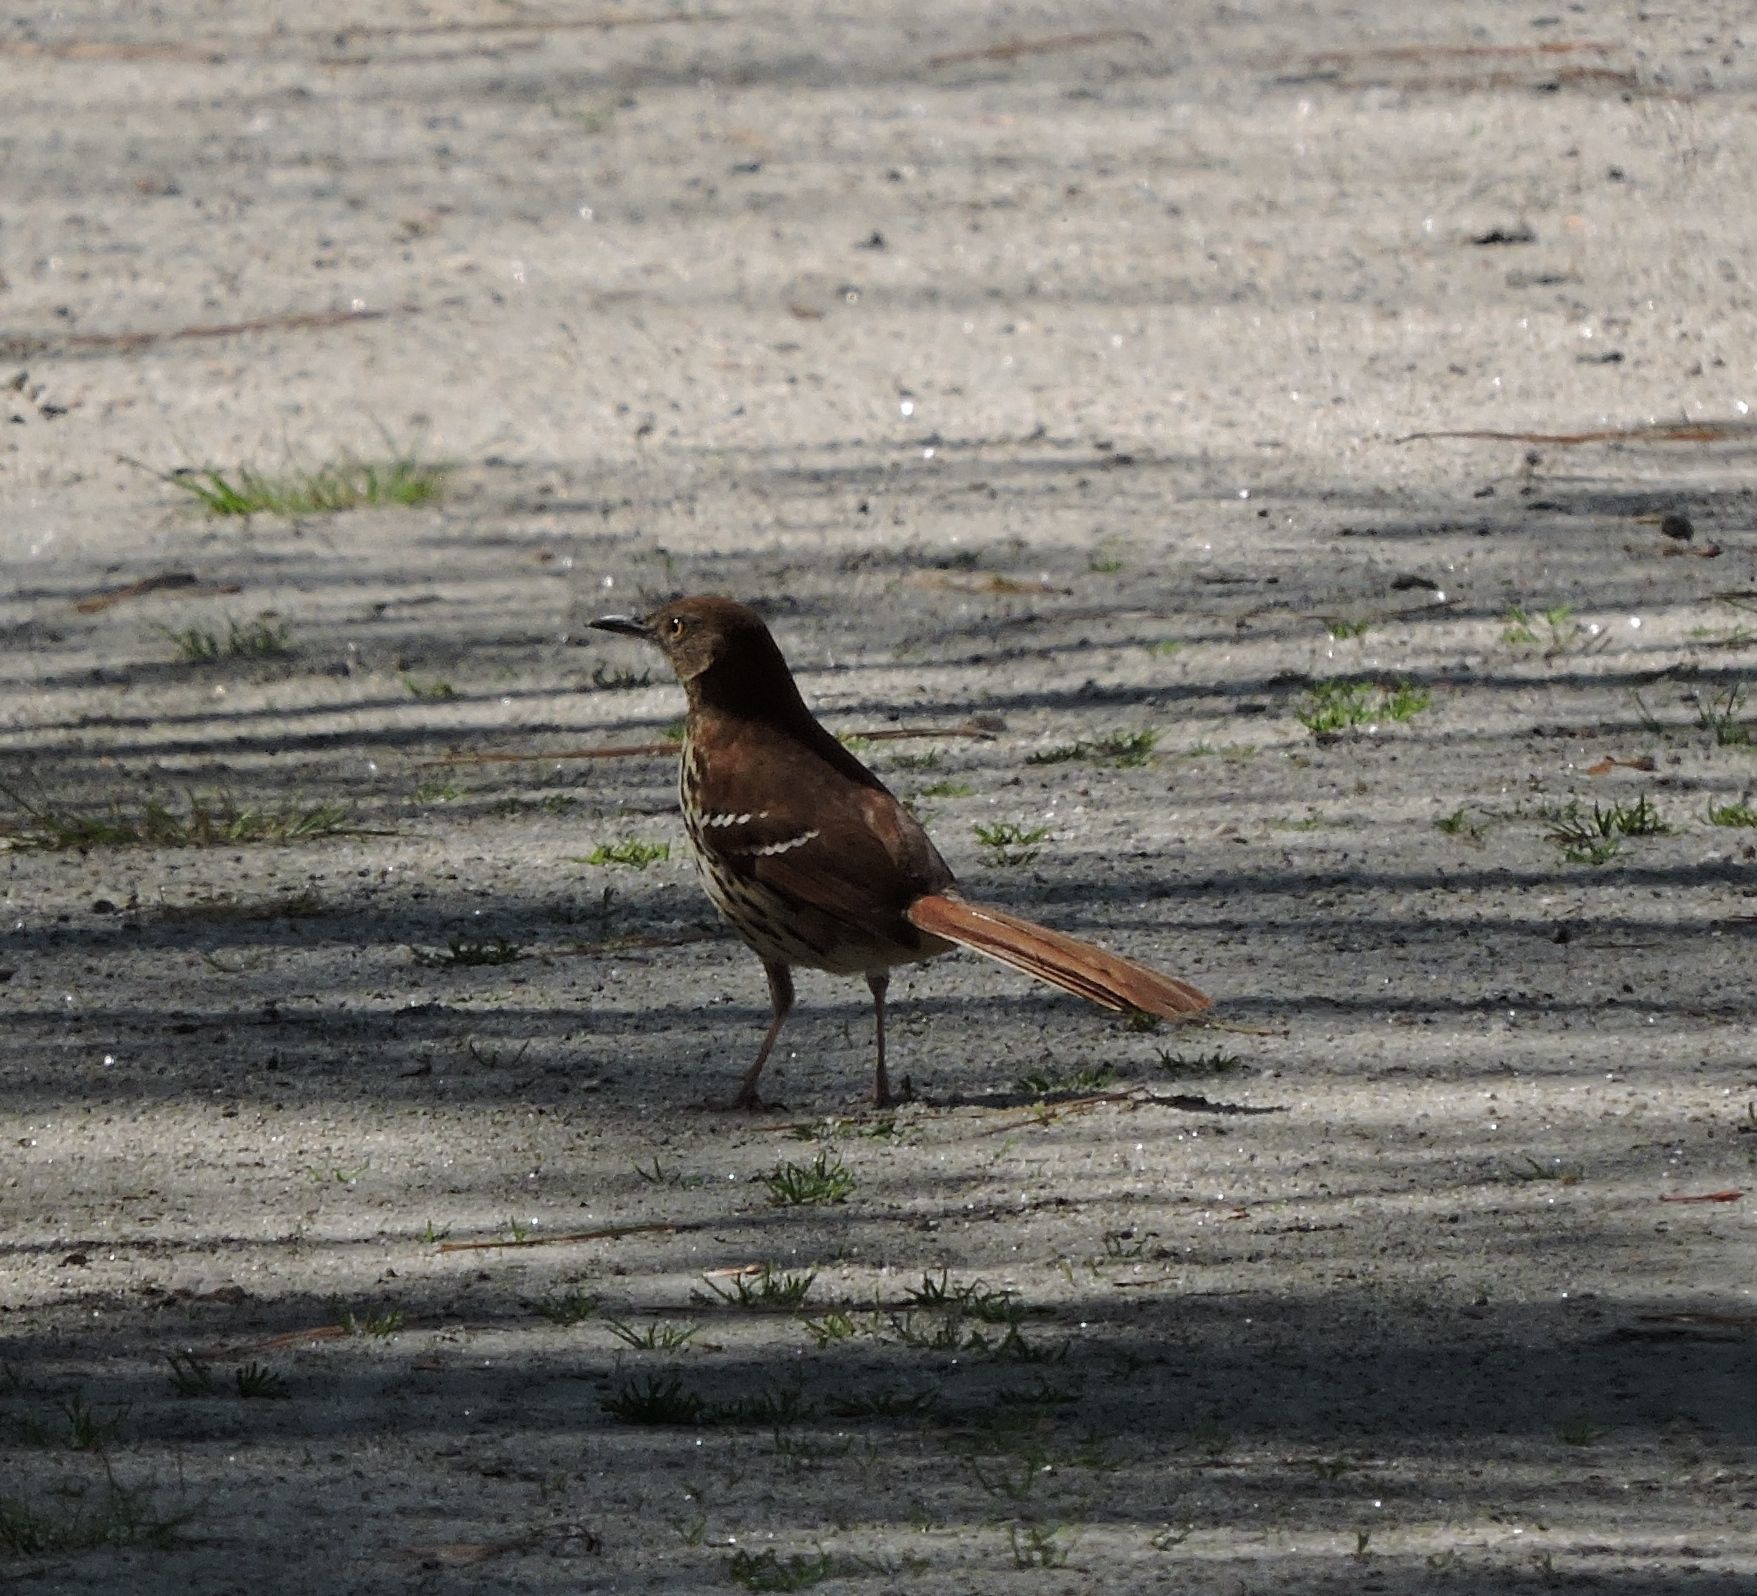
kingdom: Animalia
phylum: Chordata
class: Aves
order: Passeriformes
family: Mimidae
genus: Toxostoma
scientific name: Toxostoma rufum
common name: Brown thrasher
